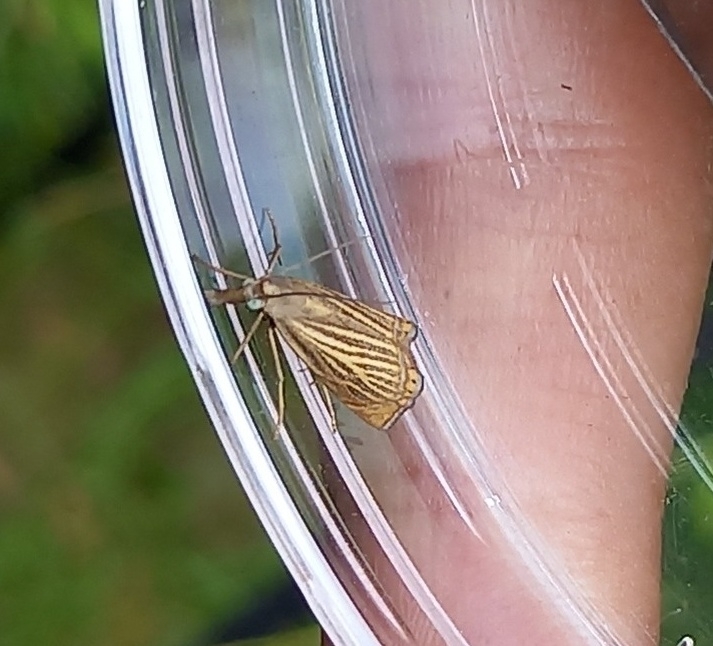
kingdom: Animalia
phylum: Arthropoda
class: Insecta
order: Lepidoptera
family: Crambidae
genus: Chrysoteuchia
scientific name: Chrysoteuchia culmella
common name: Garden grass-veneer
